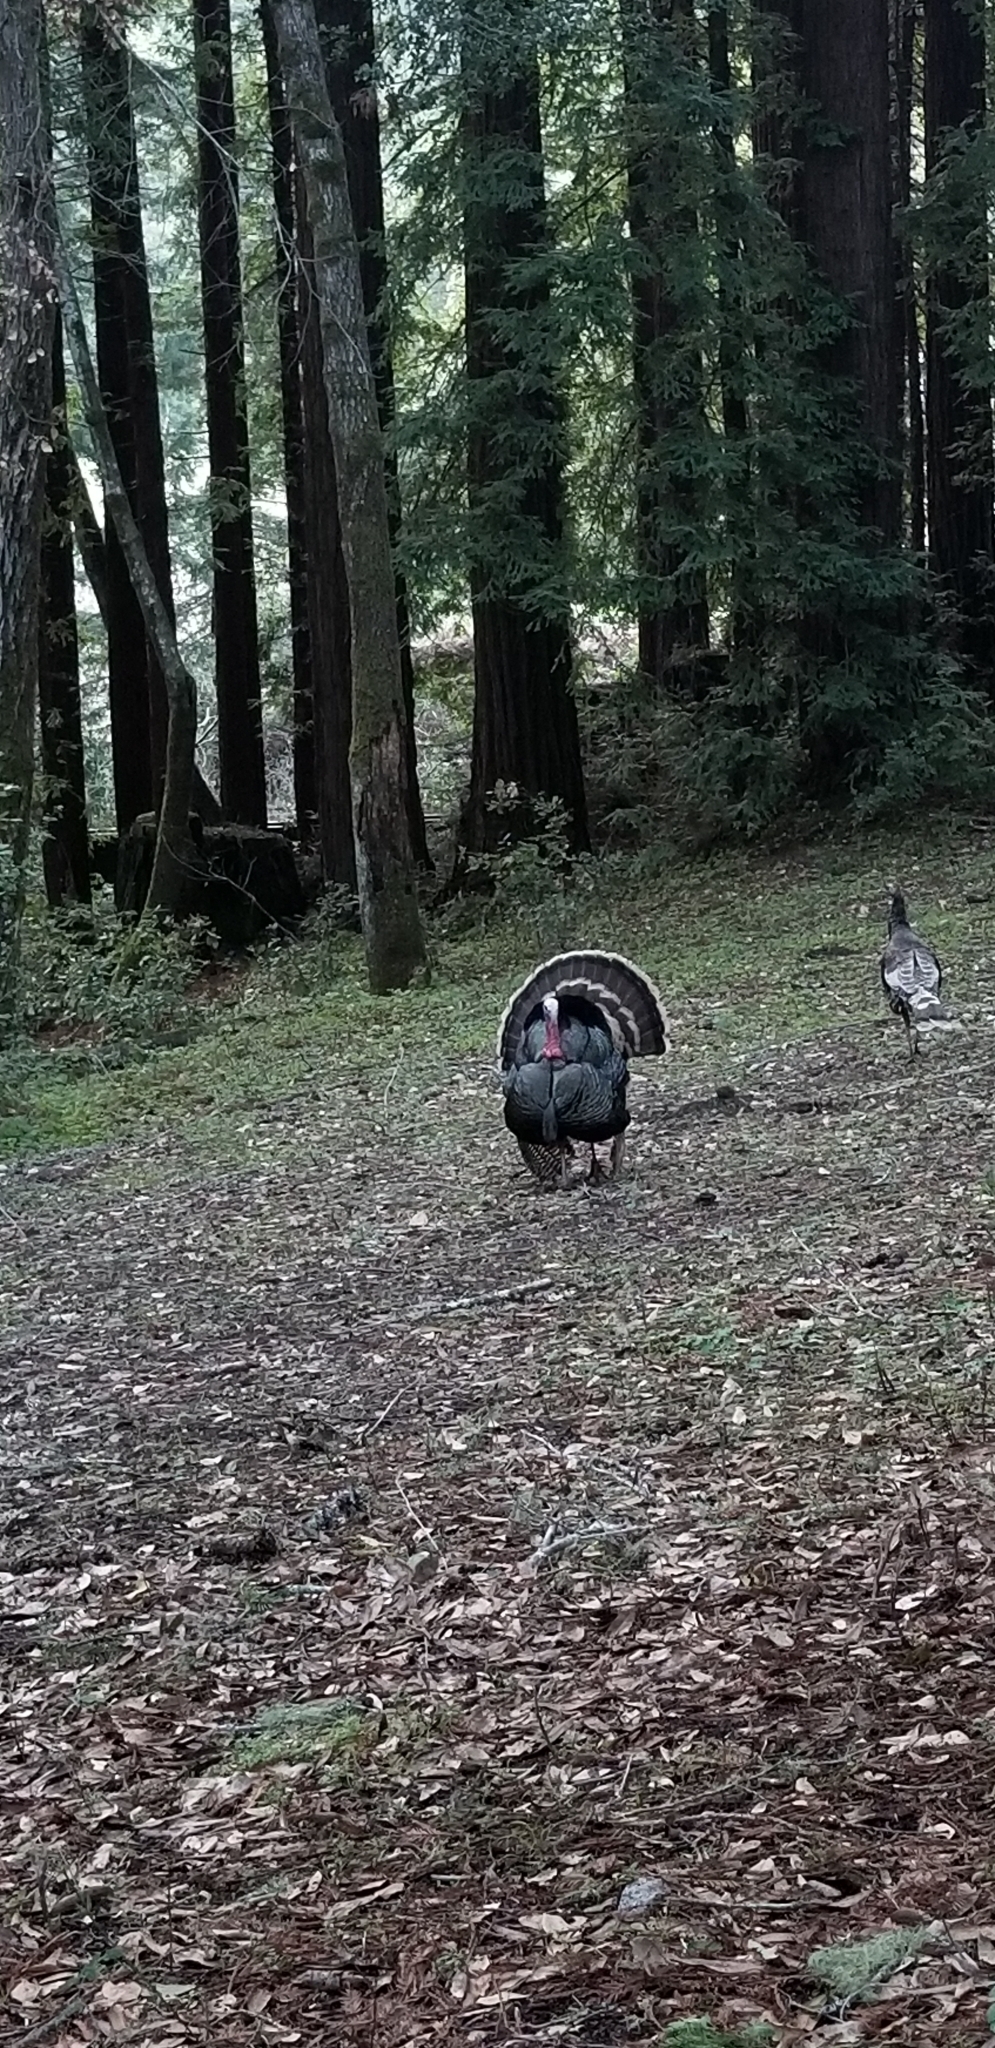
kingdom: Animalia
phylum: Chordata
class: Aves
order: Galliformes
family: Phasianidae
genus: Meleagris
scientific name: Meleagris gallopavo
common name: Wild turkey
